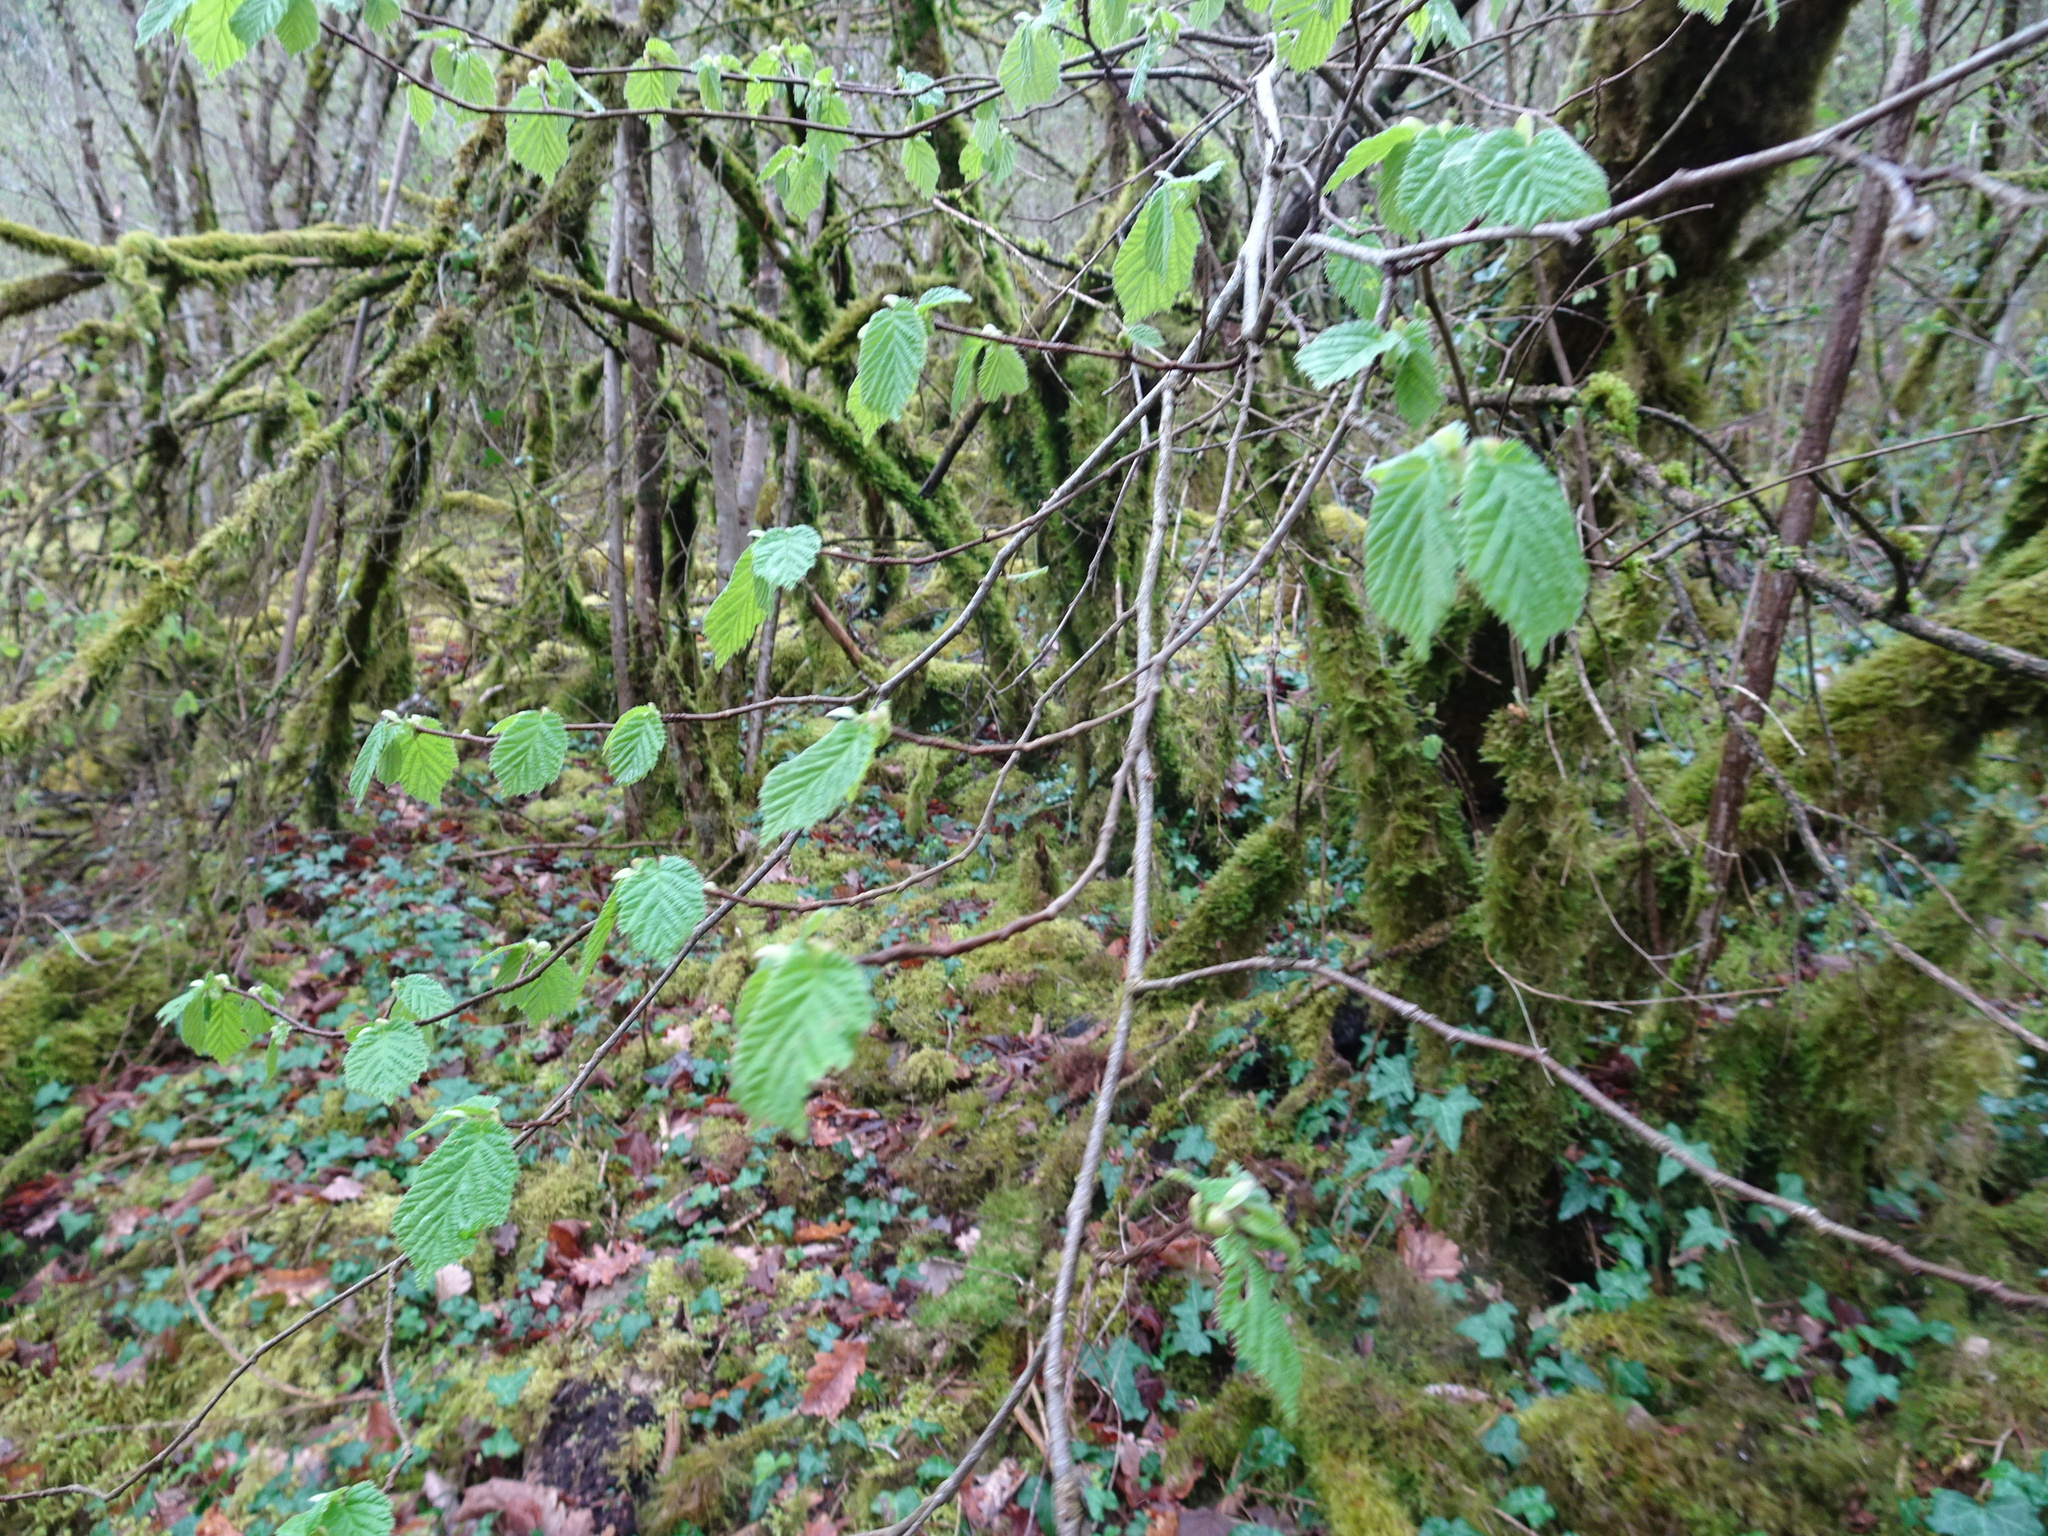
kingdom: Plantae
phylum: Tracheophyta
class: Magnoliopsida
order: Fagales
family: Betulaceae
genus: Corylus
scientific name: Corylus avellana
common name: European hazel
